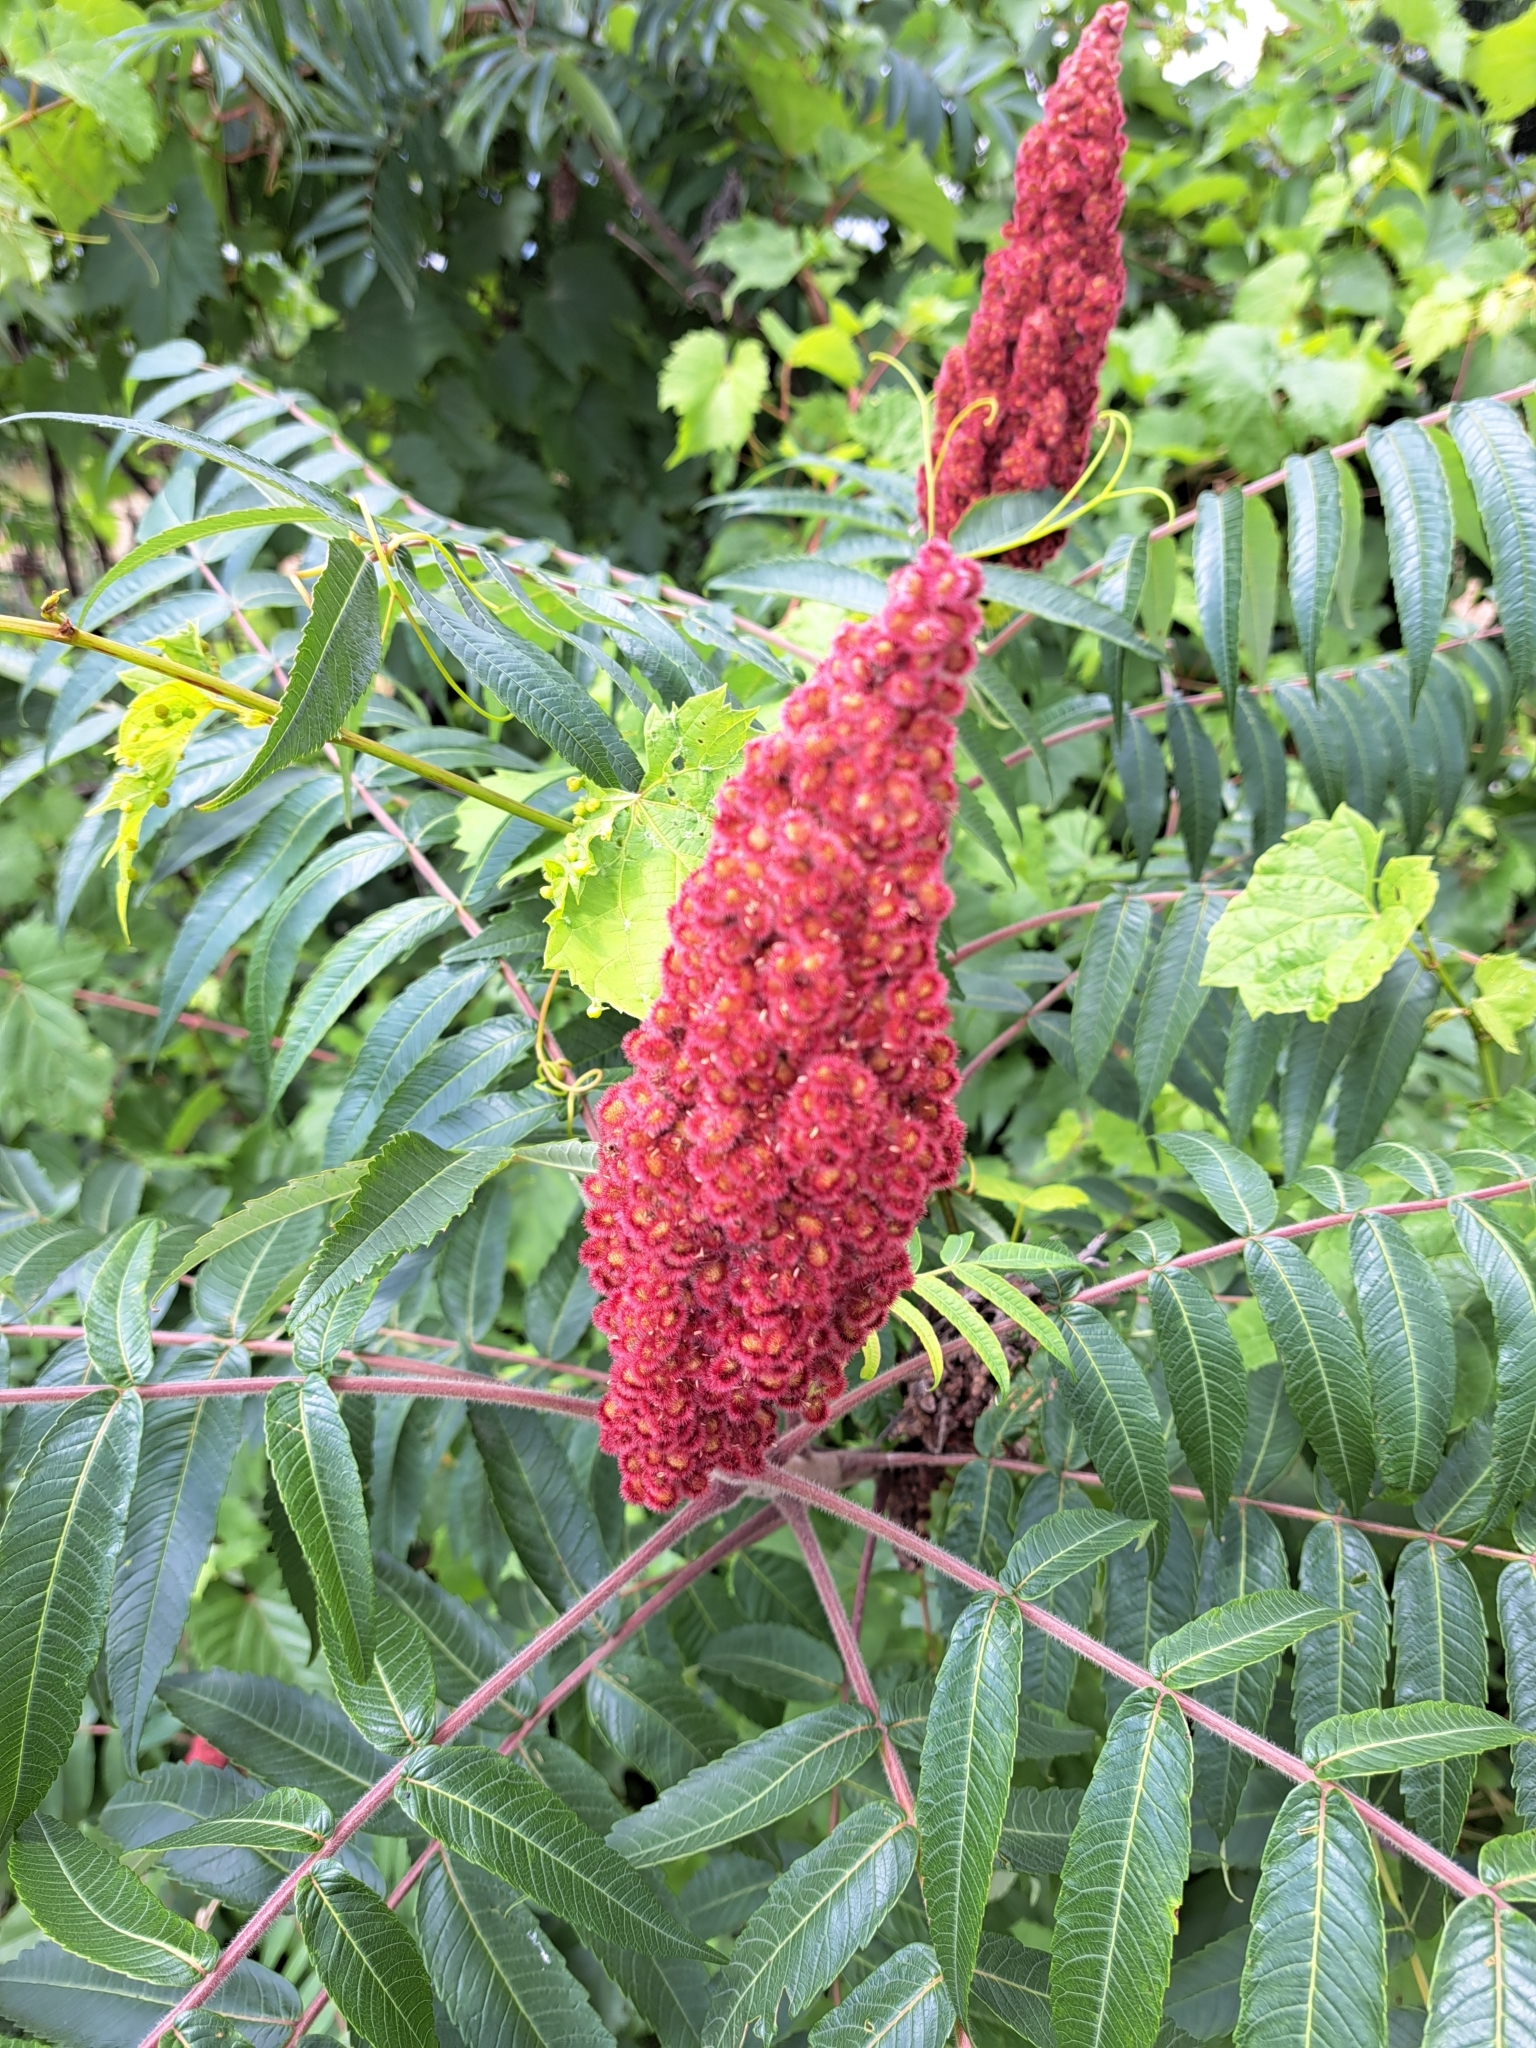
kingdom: Plantae
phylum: Tracheophyta
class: Magnoliopsida
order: Sapindales
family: Anacardiaceae
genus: Rhus
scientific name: Rhus typhina
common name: Staghorn sumac
